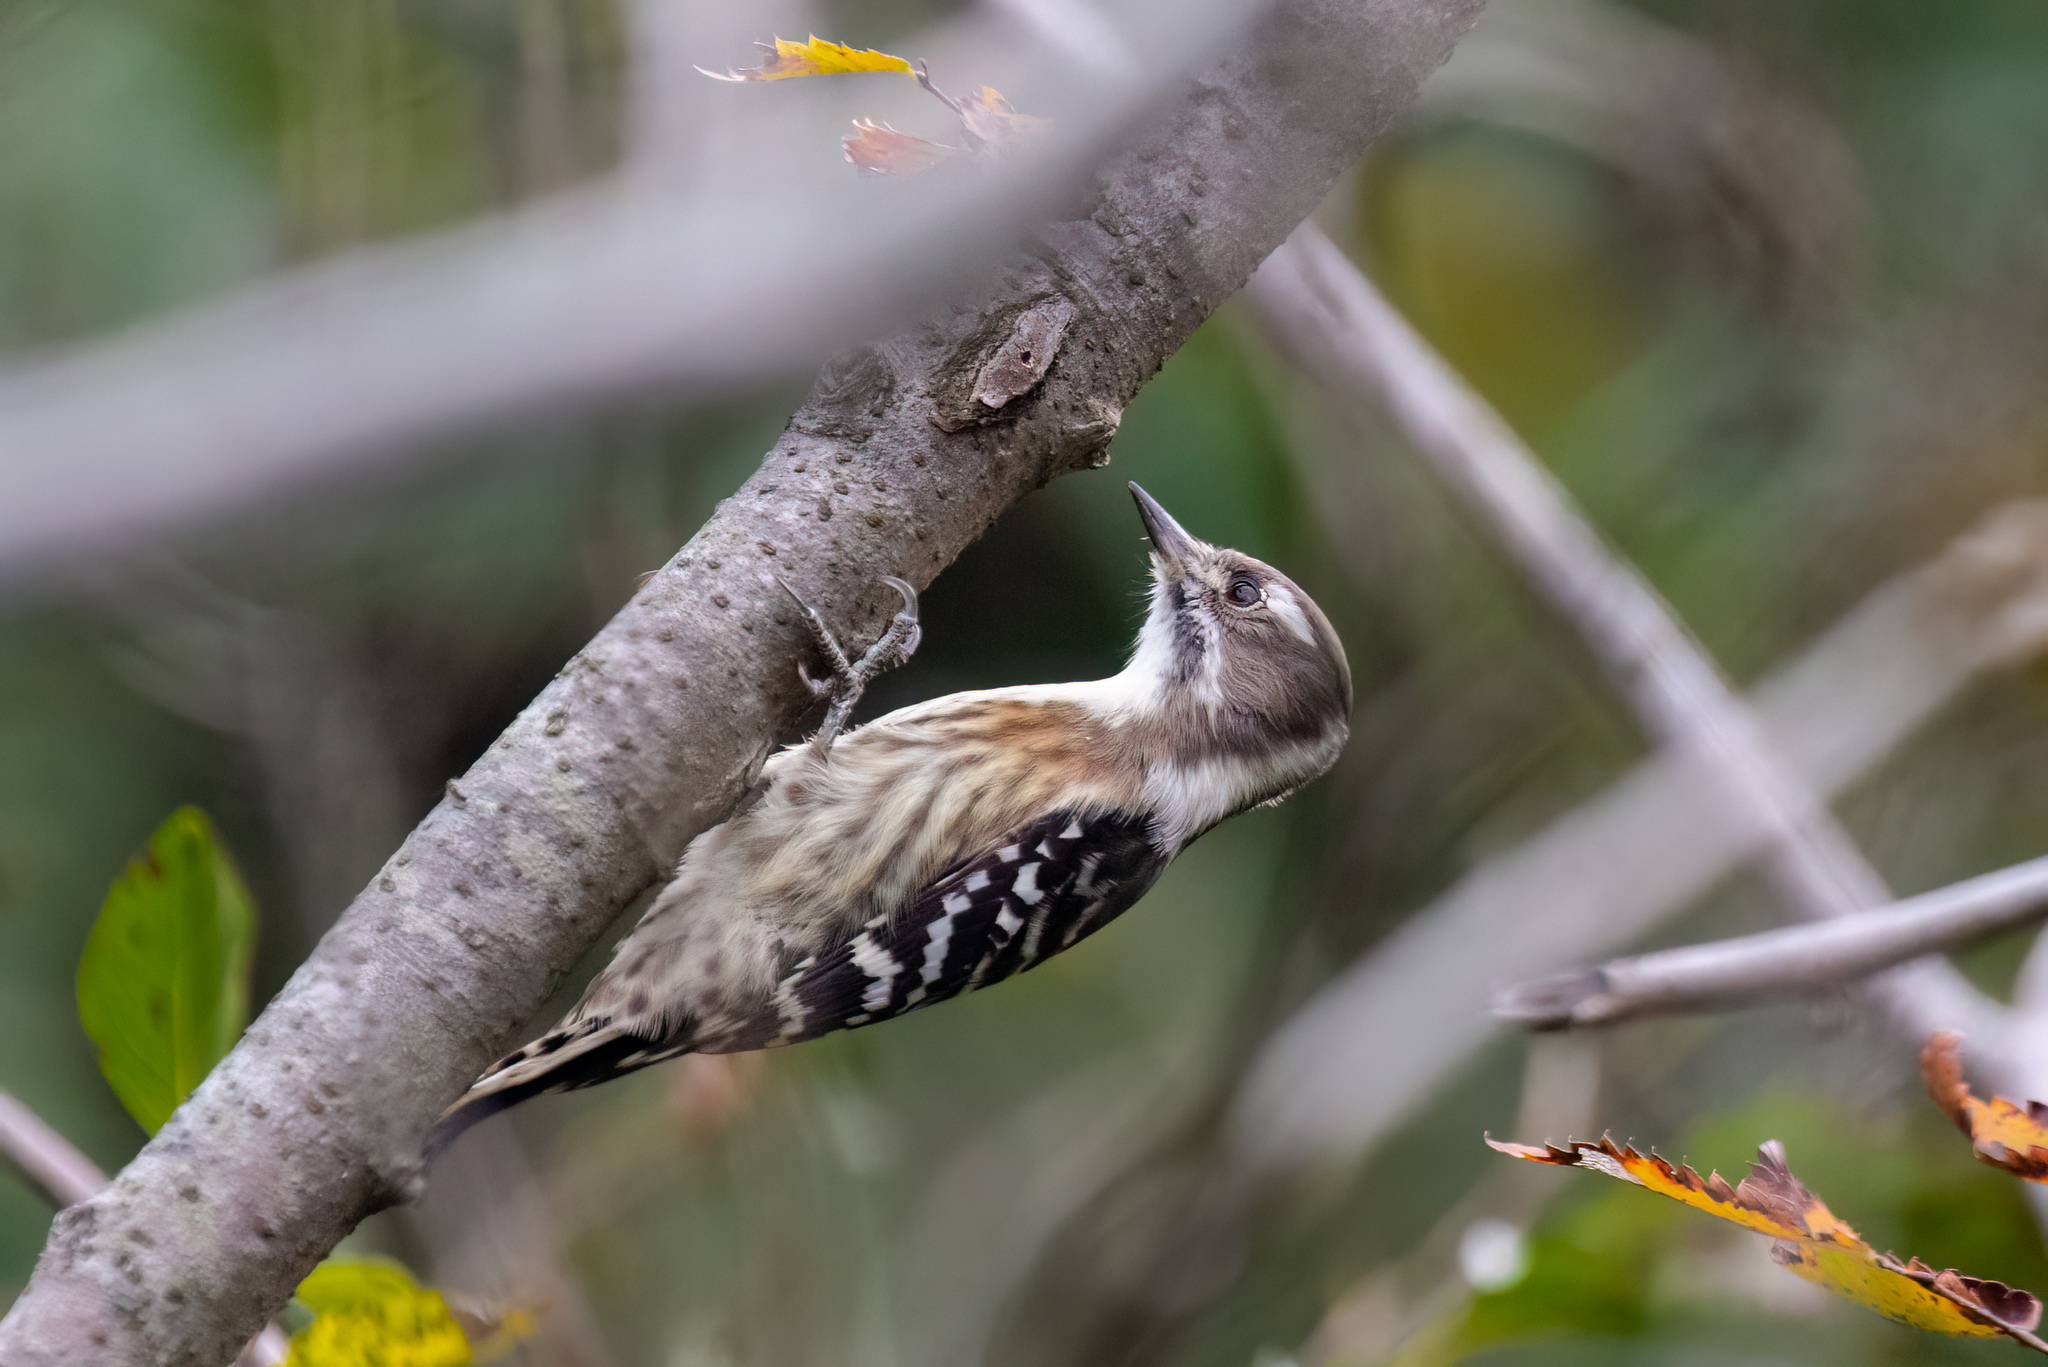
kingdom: Animalia
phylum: Chordata
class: Aves
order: Piciformes
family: Picidae
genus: Yungipicus
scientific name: Yungipicus kizuki
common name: Japanese pygmy woodpecker
